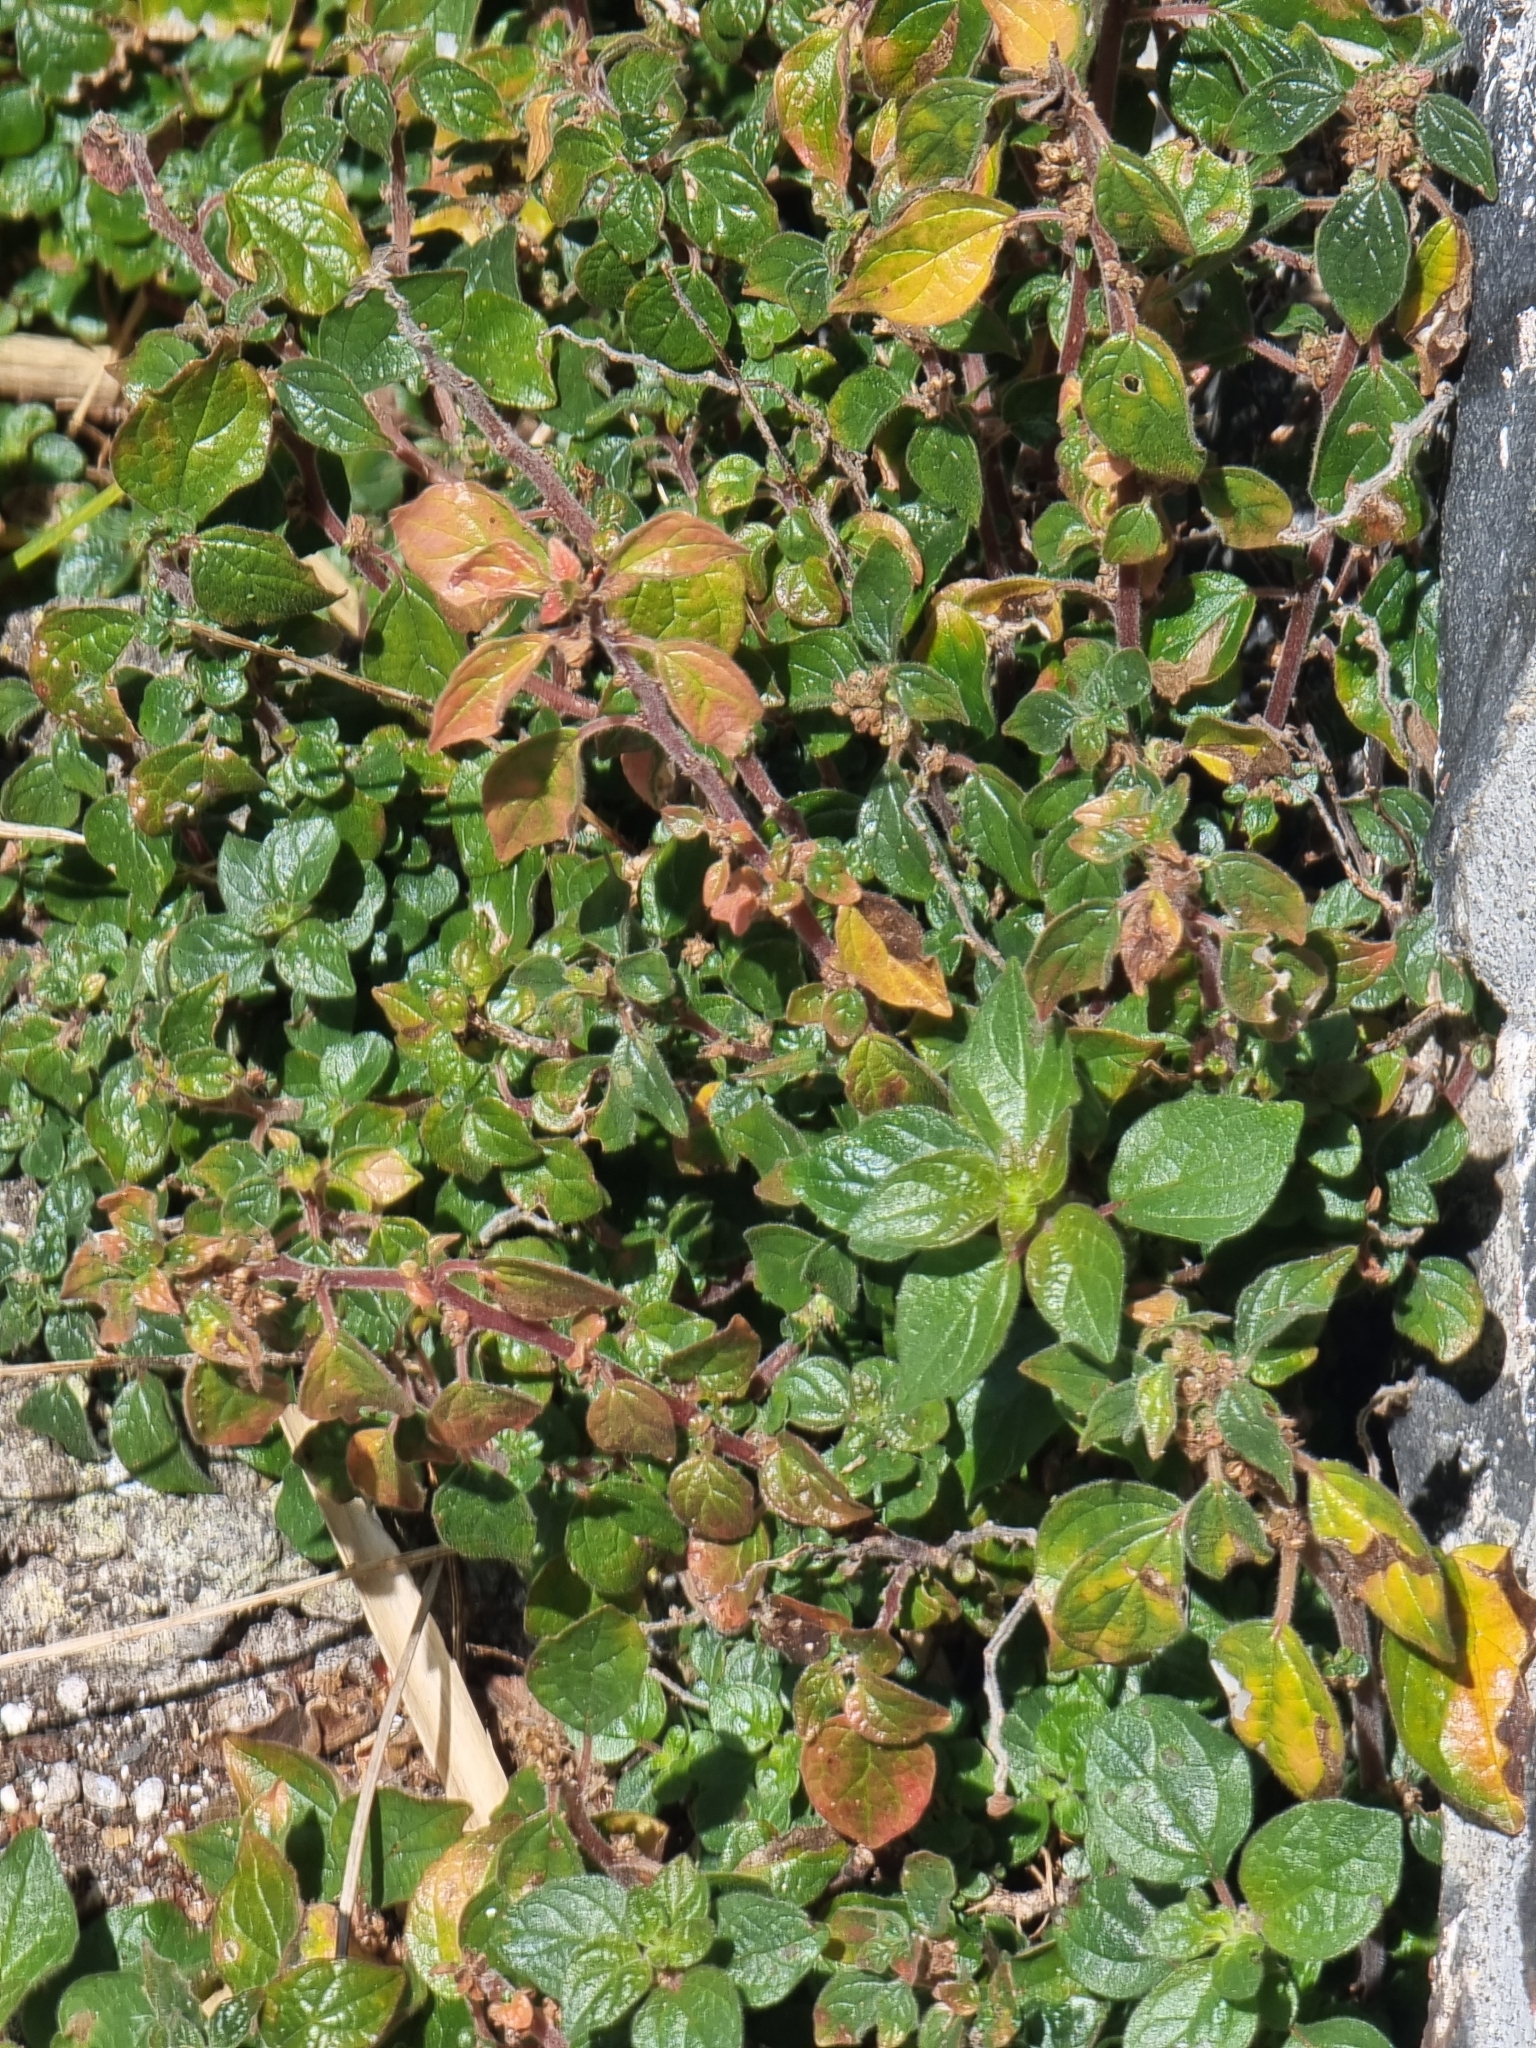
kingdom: Plantae
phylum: Tracheophyta
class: Magnoliopsida
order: Rosales
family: Urticaceae
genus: Parietaria
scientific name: Parietaria judaica
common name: Pellitory-of-the-wall
